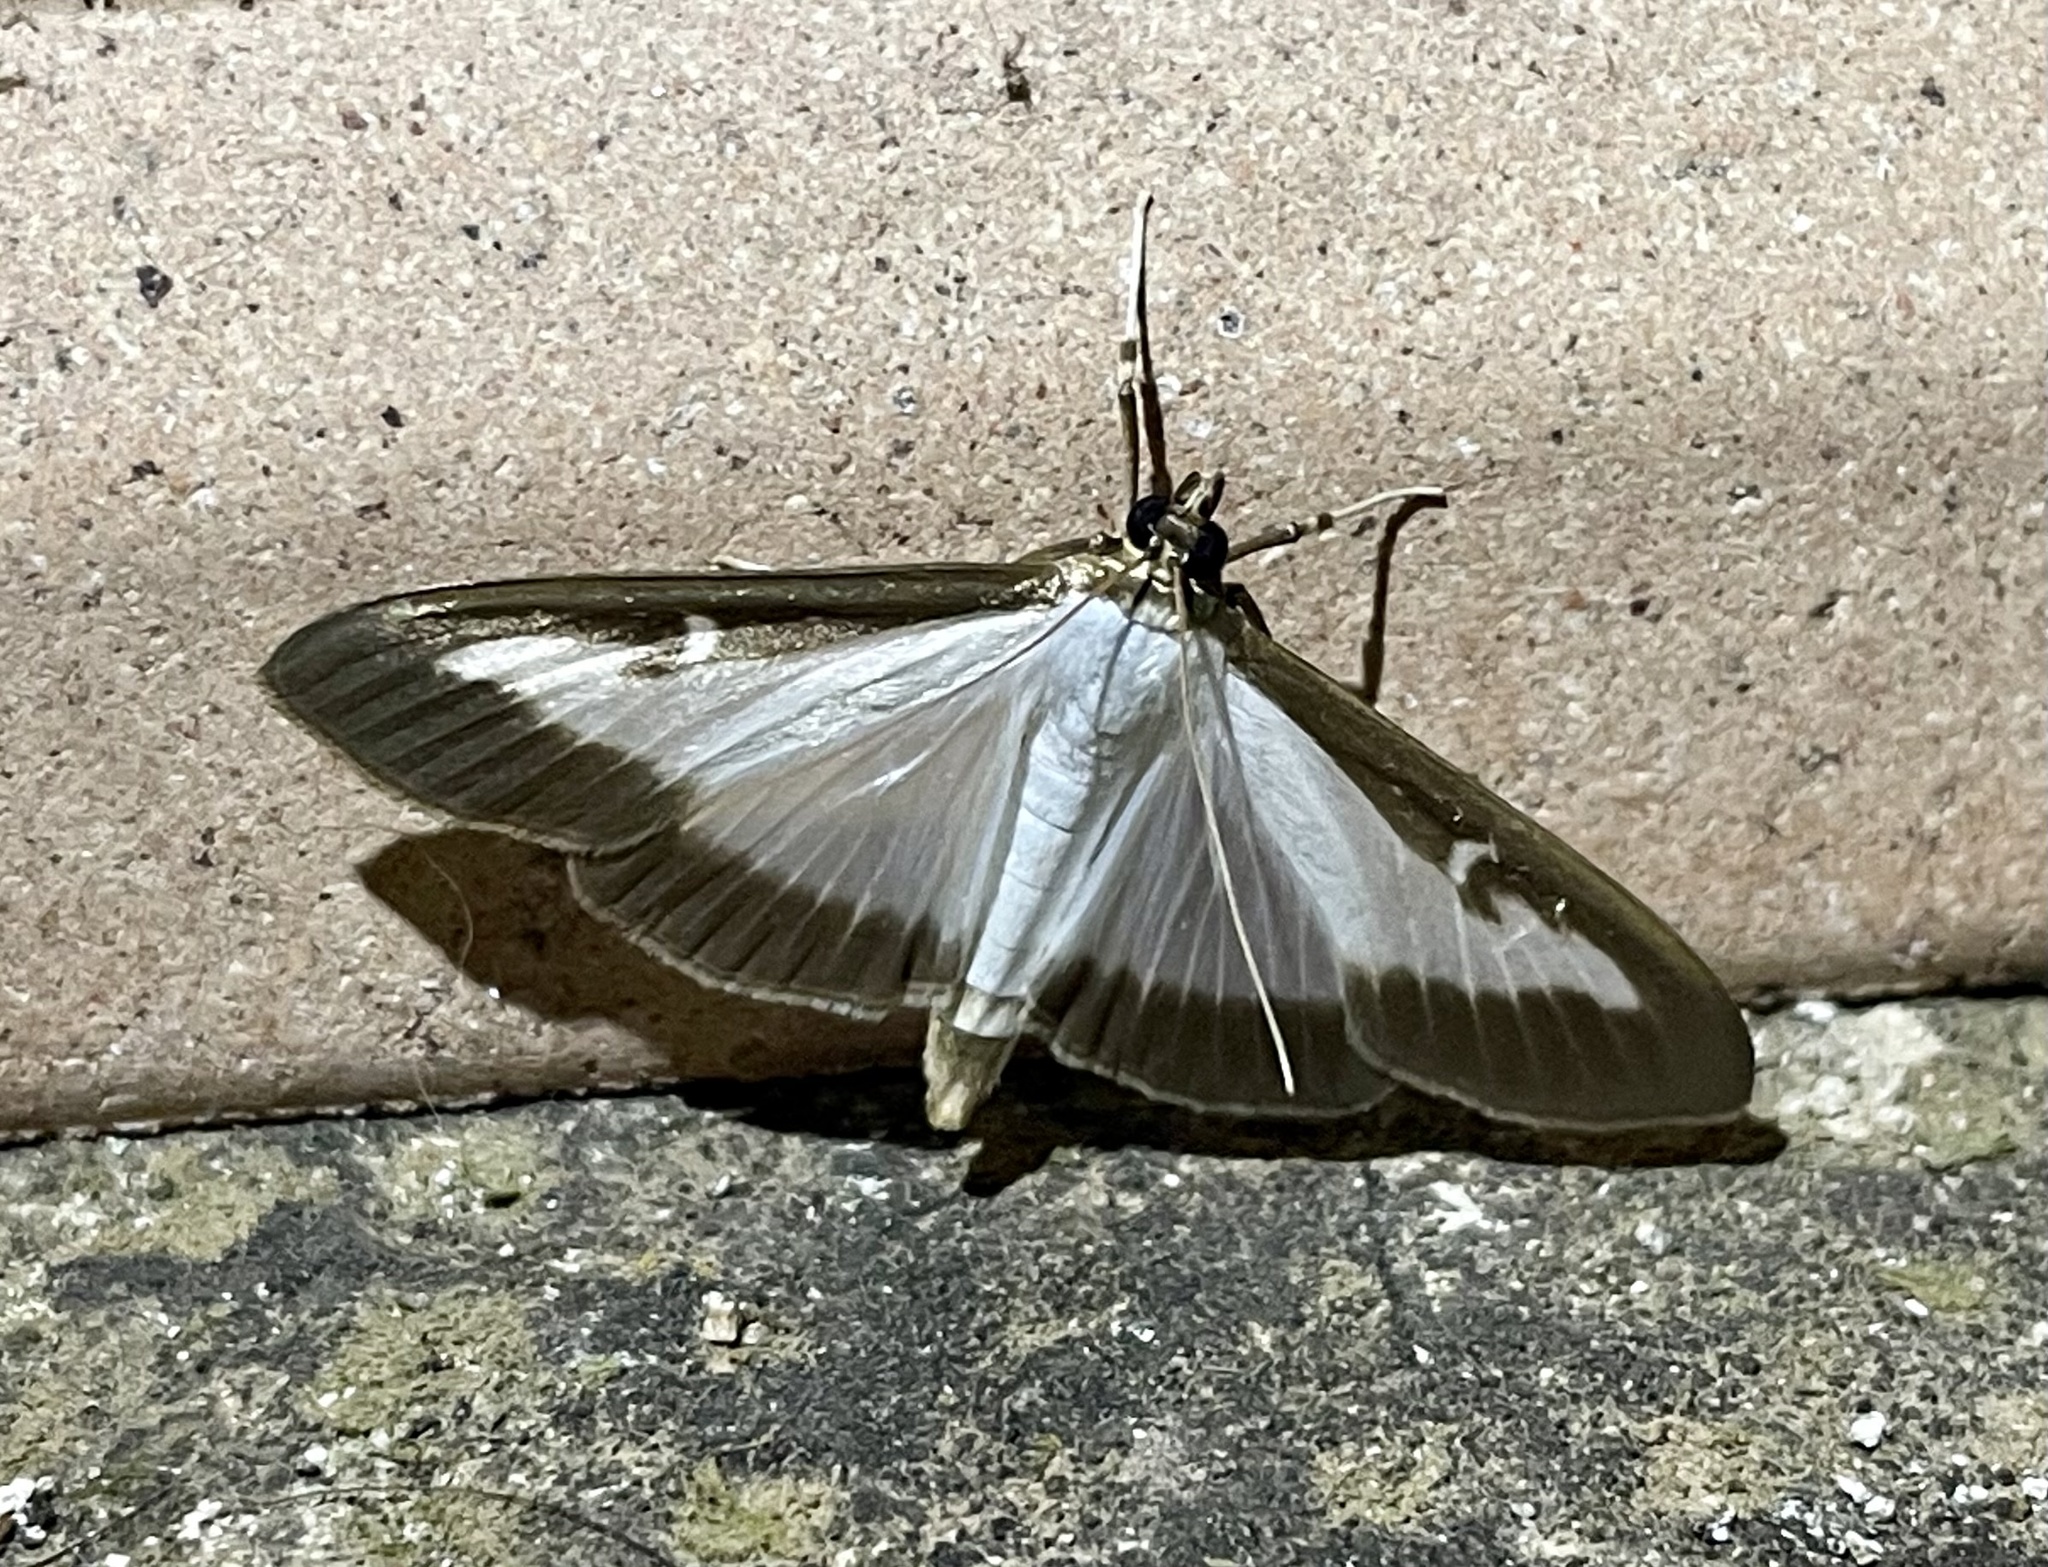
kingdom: Animalia
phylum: Arthropoda
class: Insecta
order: Lepidoptera
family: Crambidae
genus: Cydalima
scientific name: Cydalima perspectalis
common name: Box tree moth
